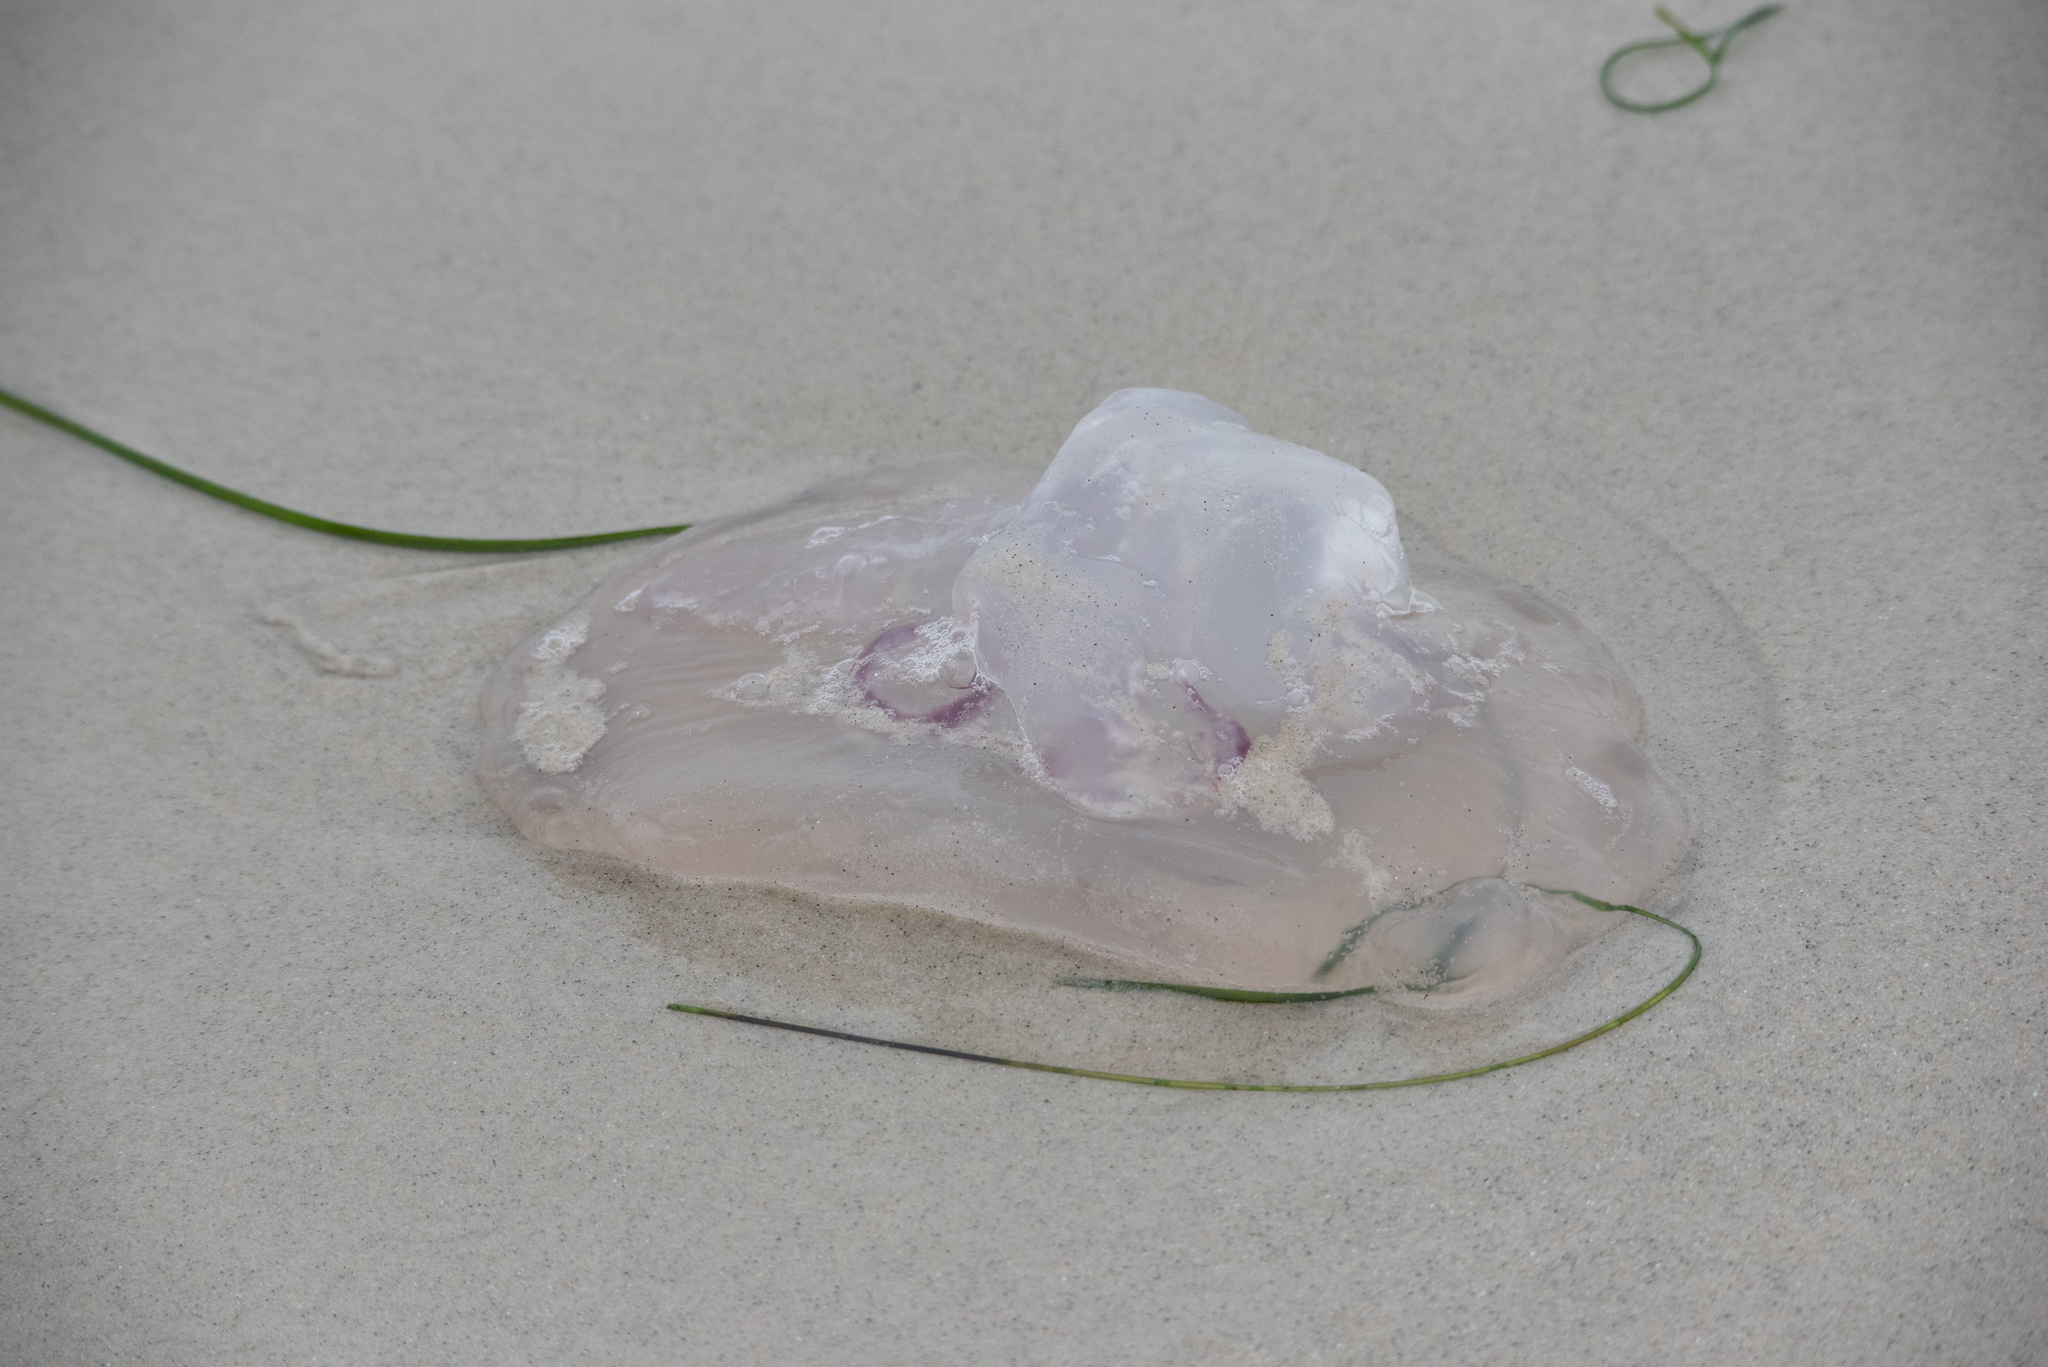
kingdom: Animalia
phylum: Cnidaria
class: Scyphozoa
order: Semaeostomeae
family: Ulmaridae
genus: Aurelia
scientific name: Aurelia labiata
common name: Pacific moon jelly
